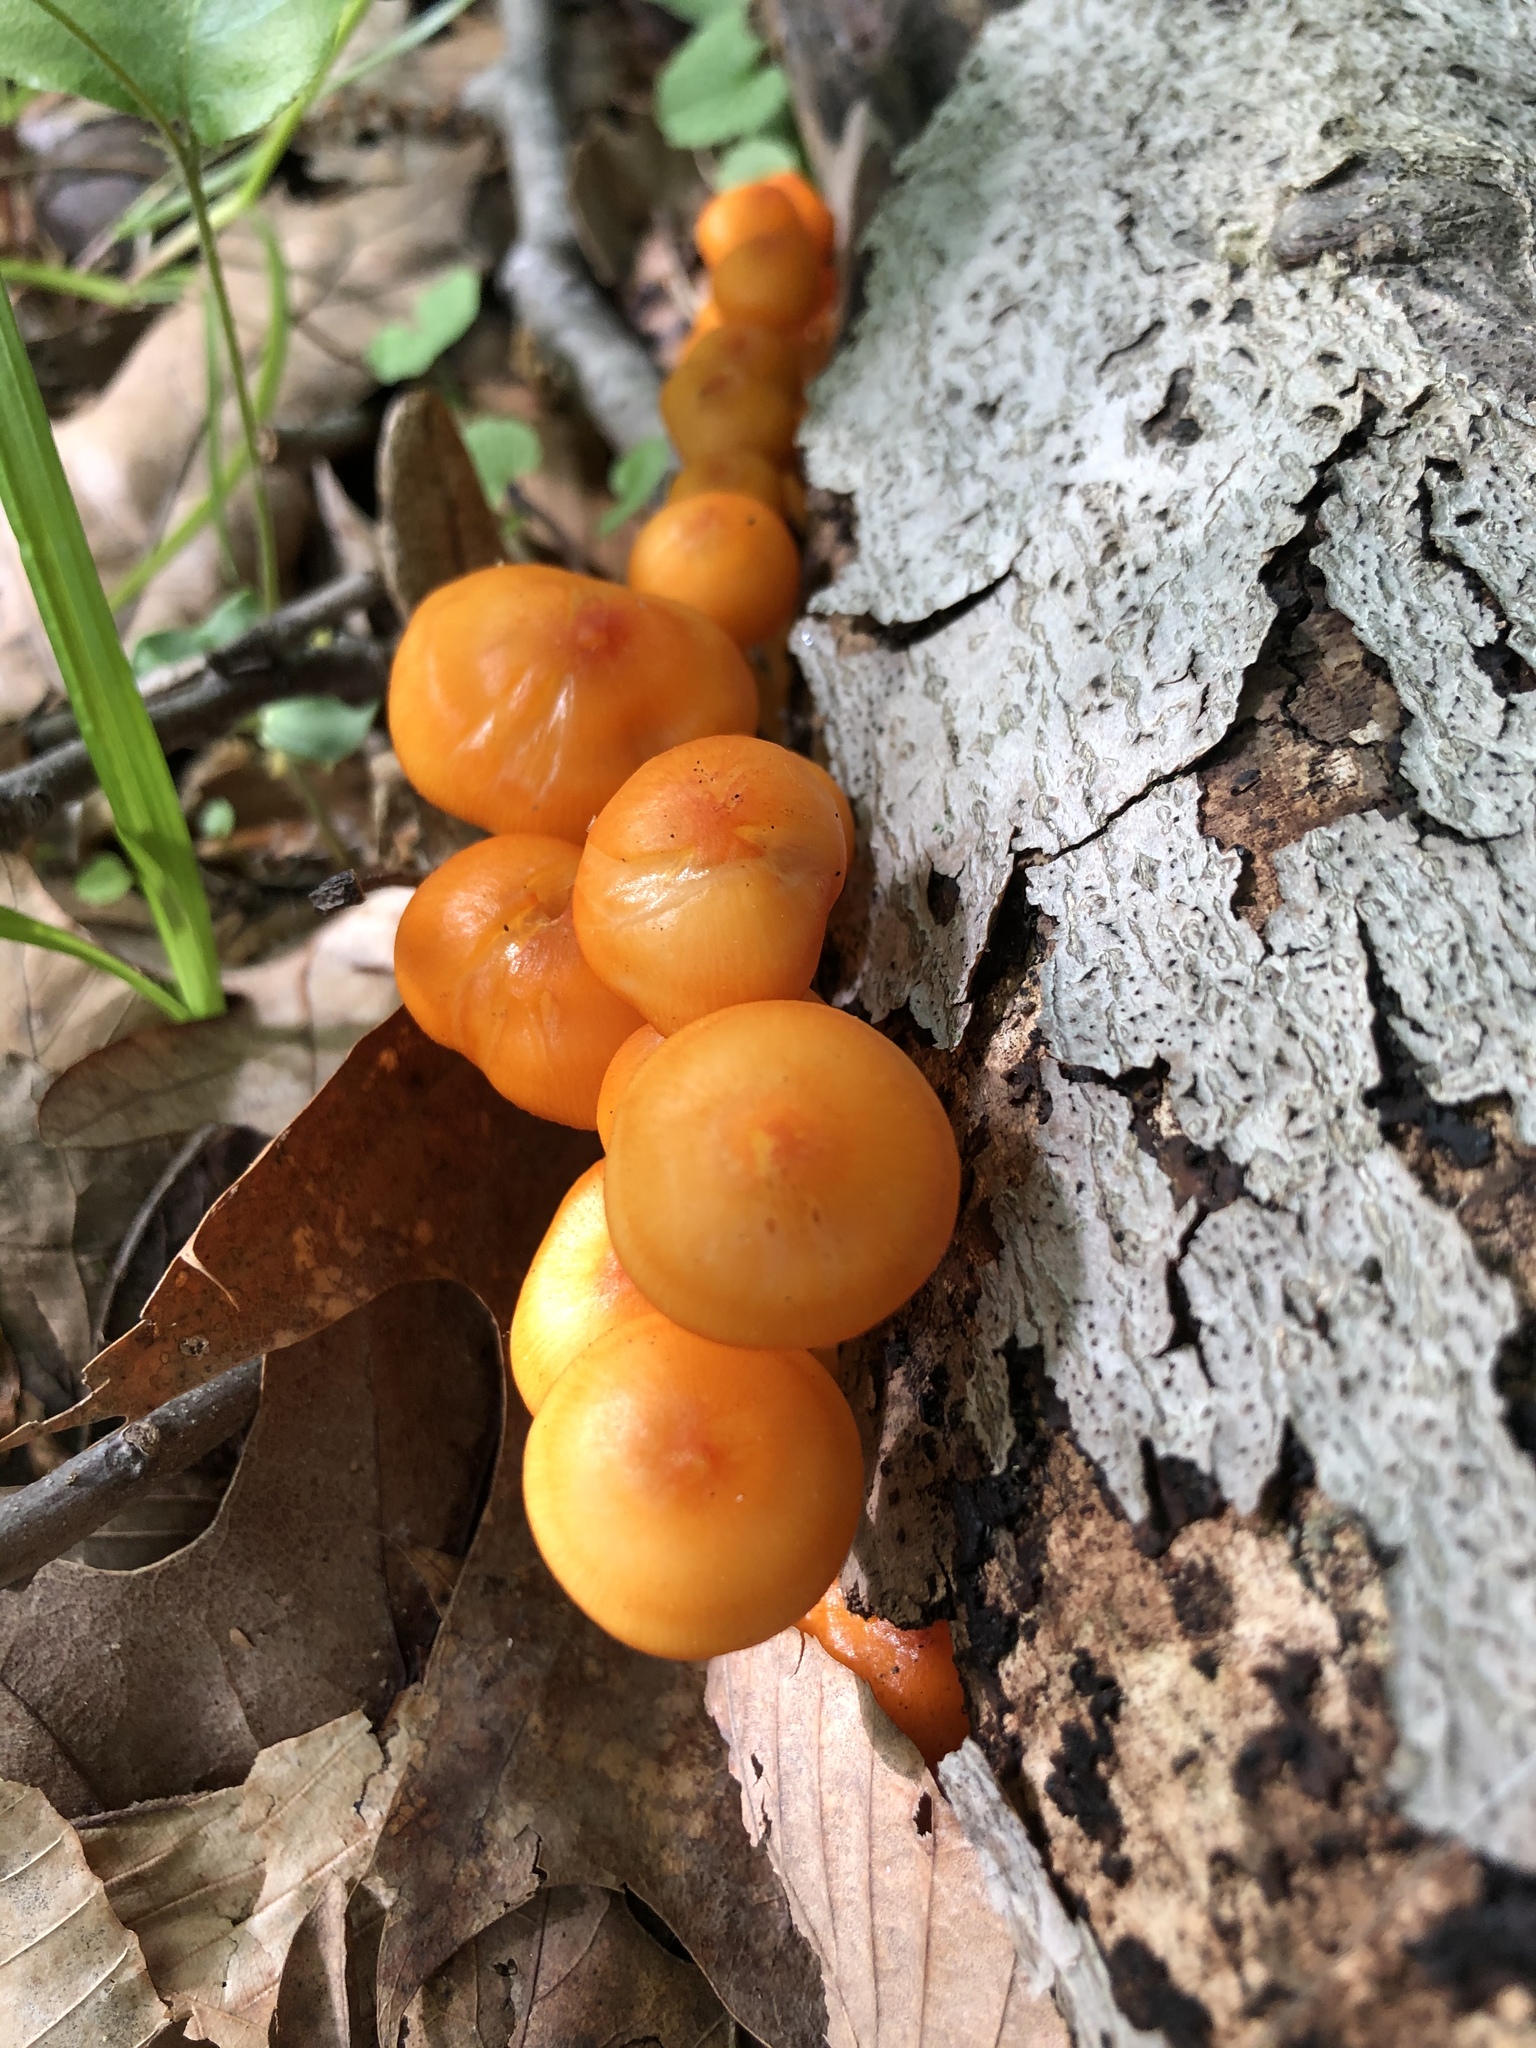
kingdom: Fungi
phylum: Basidiomycota
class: Agaricomycetes
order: Agaricales
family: Mycenaceae
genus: Mycena
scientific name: Mycena leaiana
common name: Orange mycena
